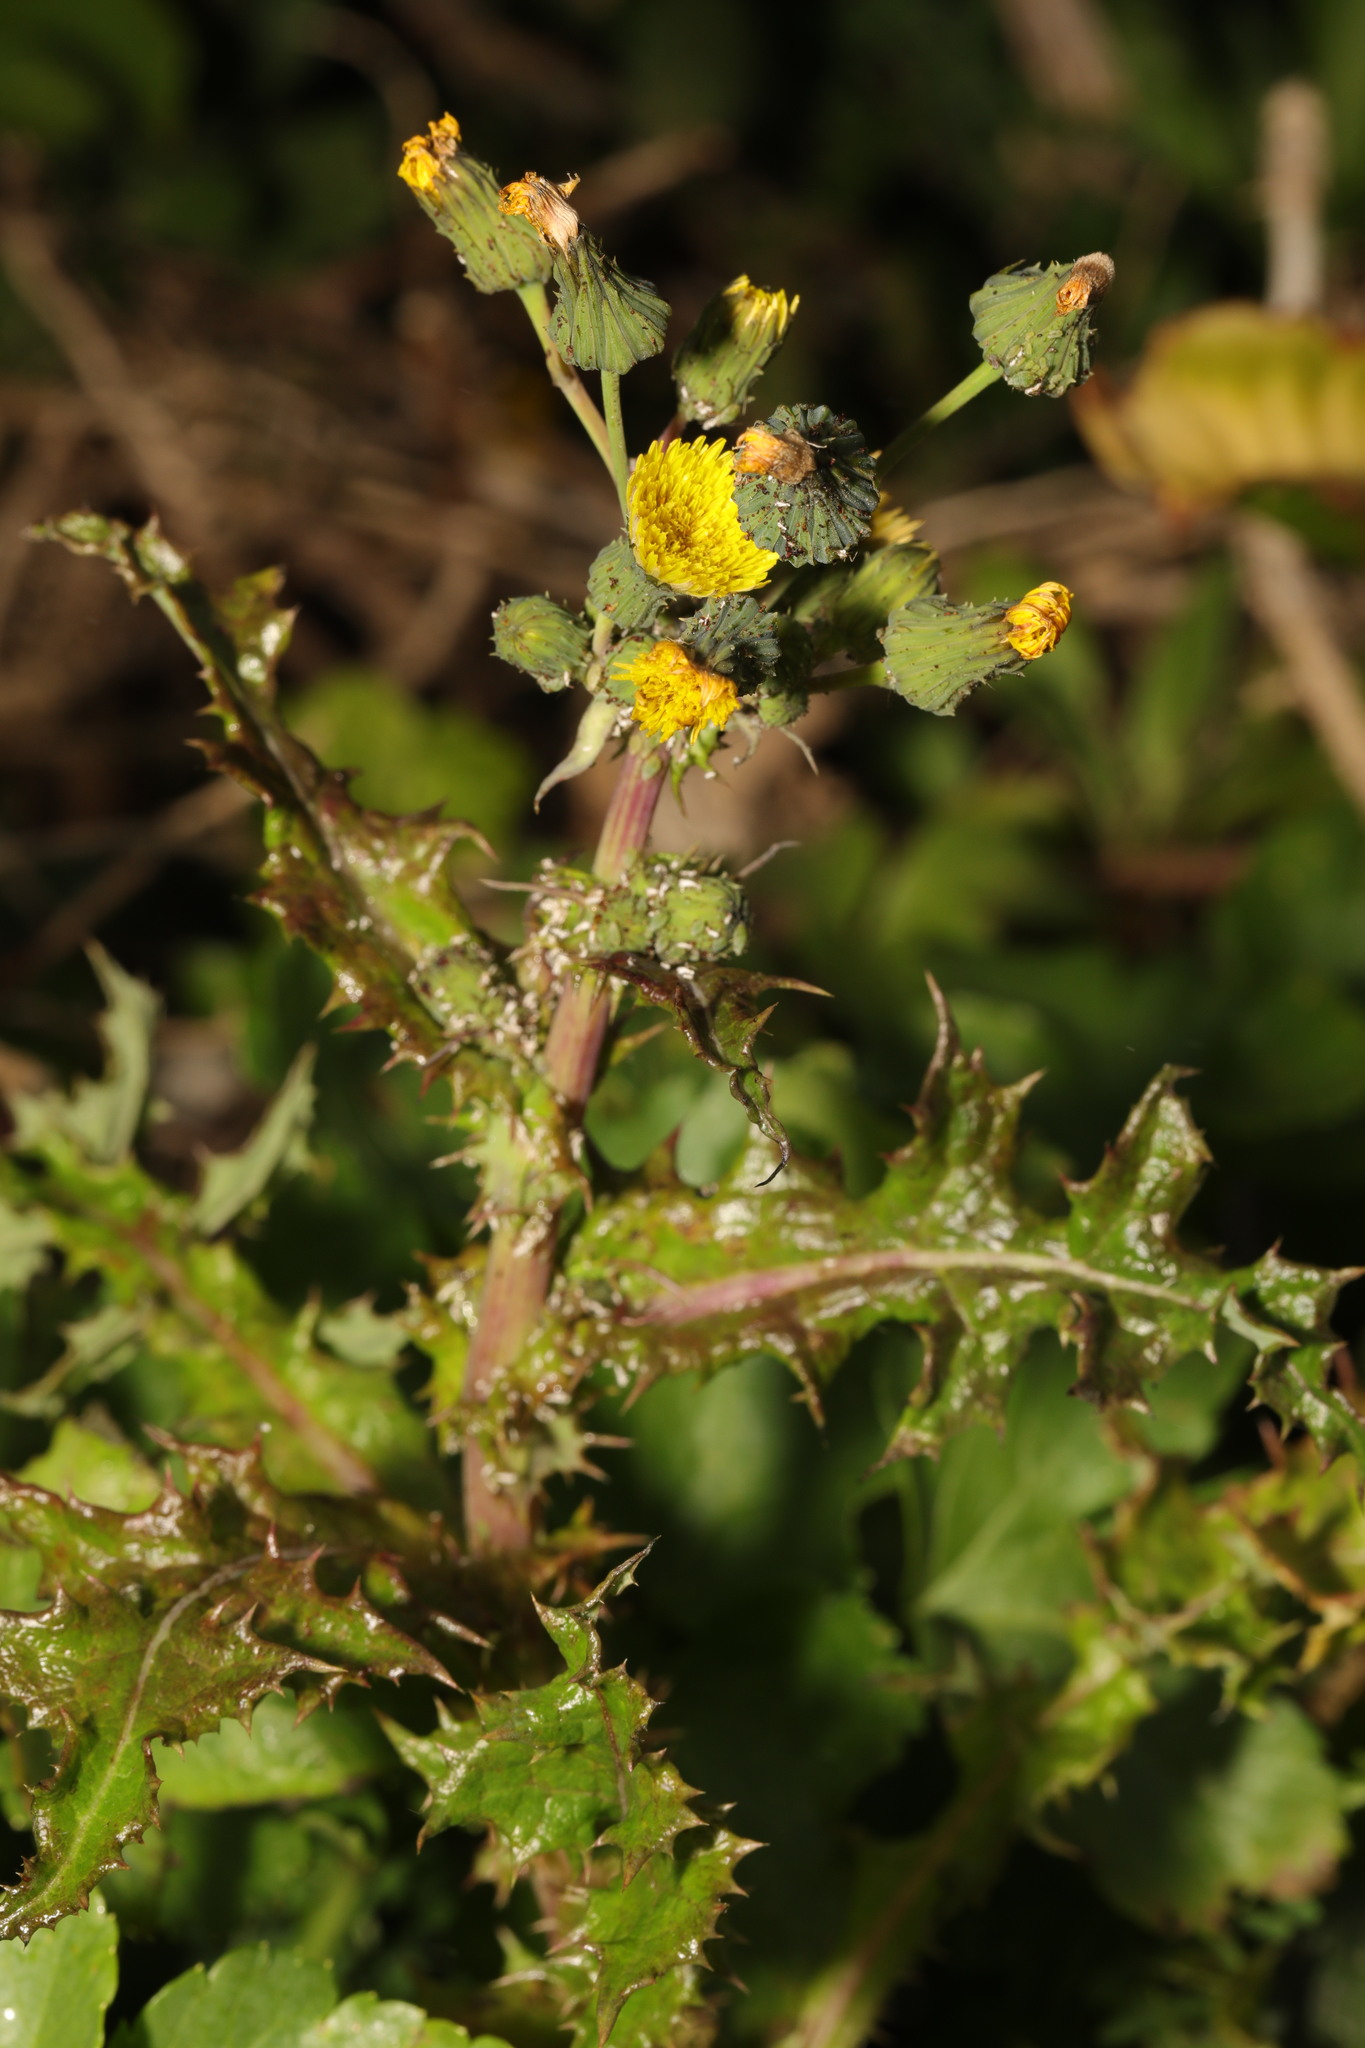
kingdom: Plantae
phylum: Tracheophyta
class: Magnoliopsida
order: Asterales
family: Asteraceae
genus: Sonchus
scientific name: Sonchus asper
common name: Prickly sow-thistle
